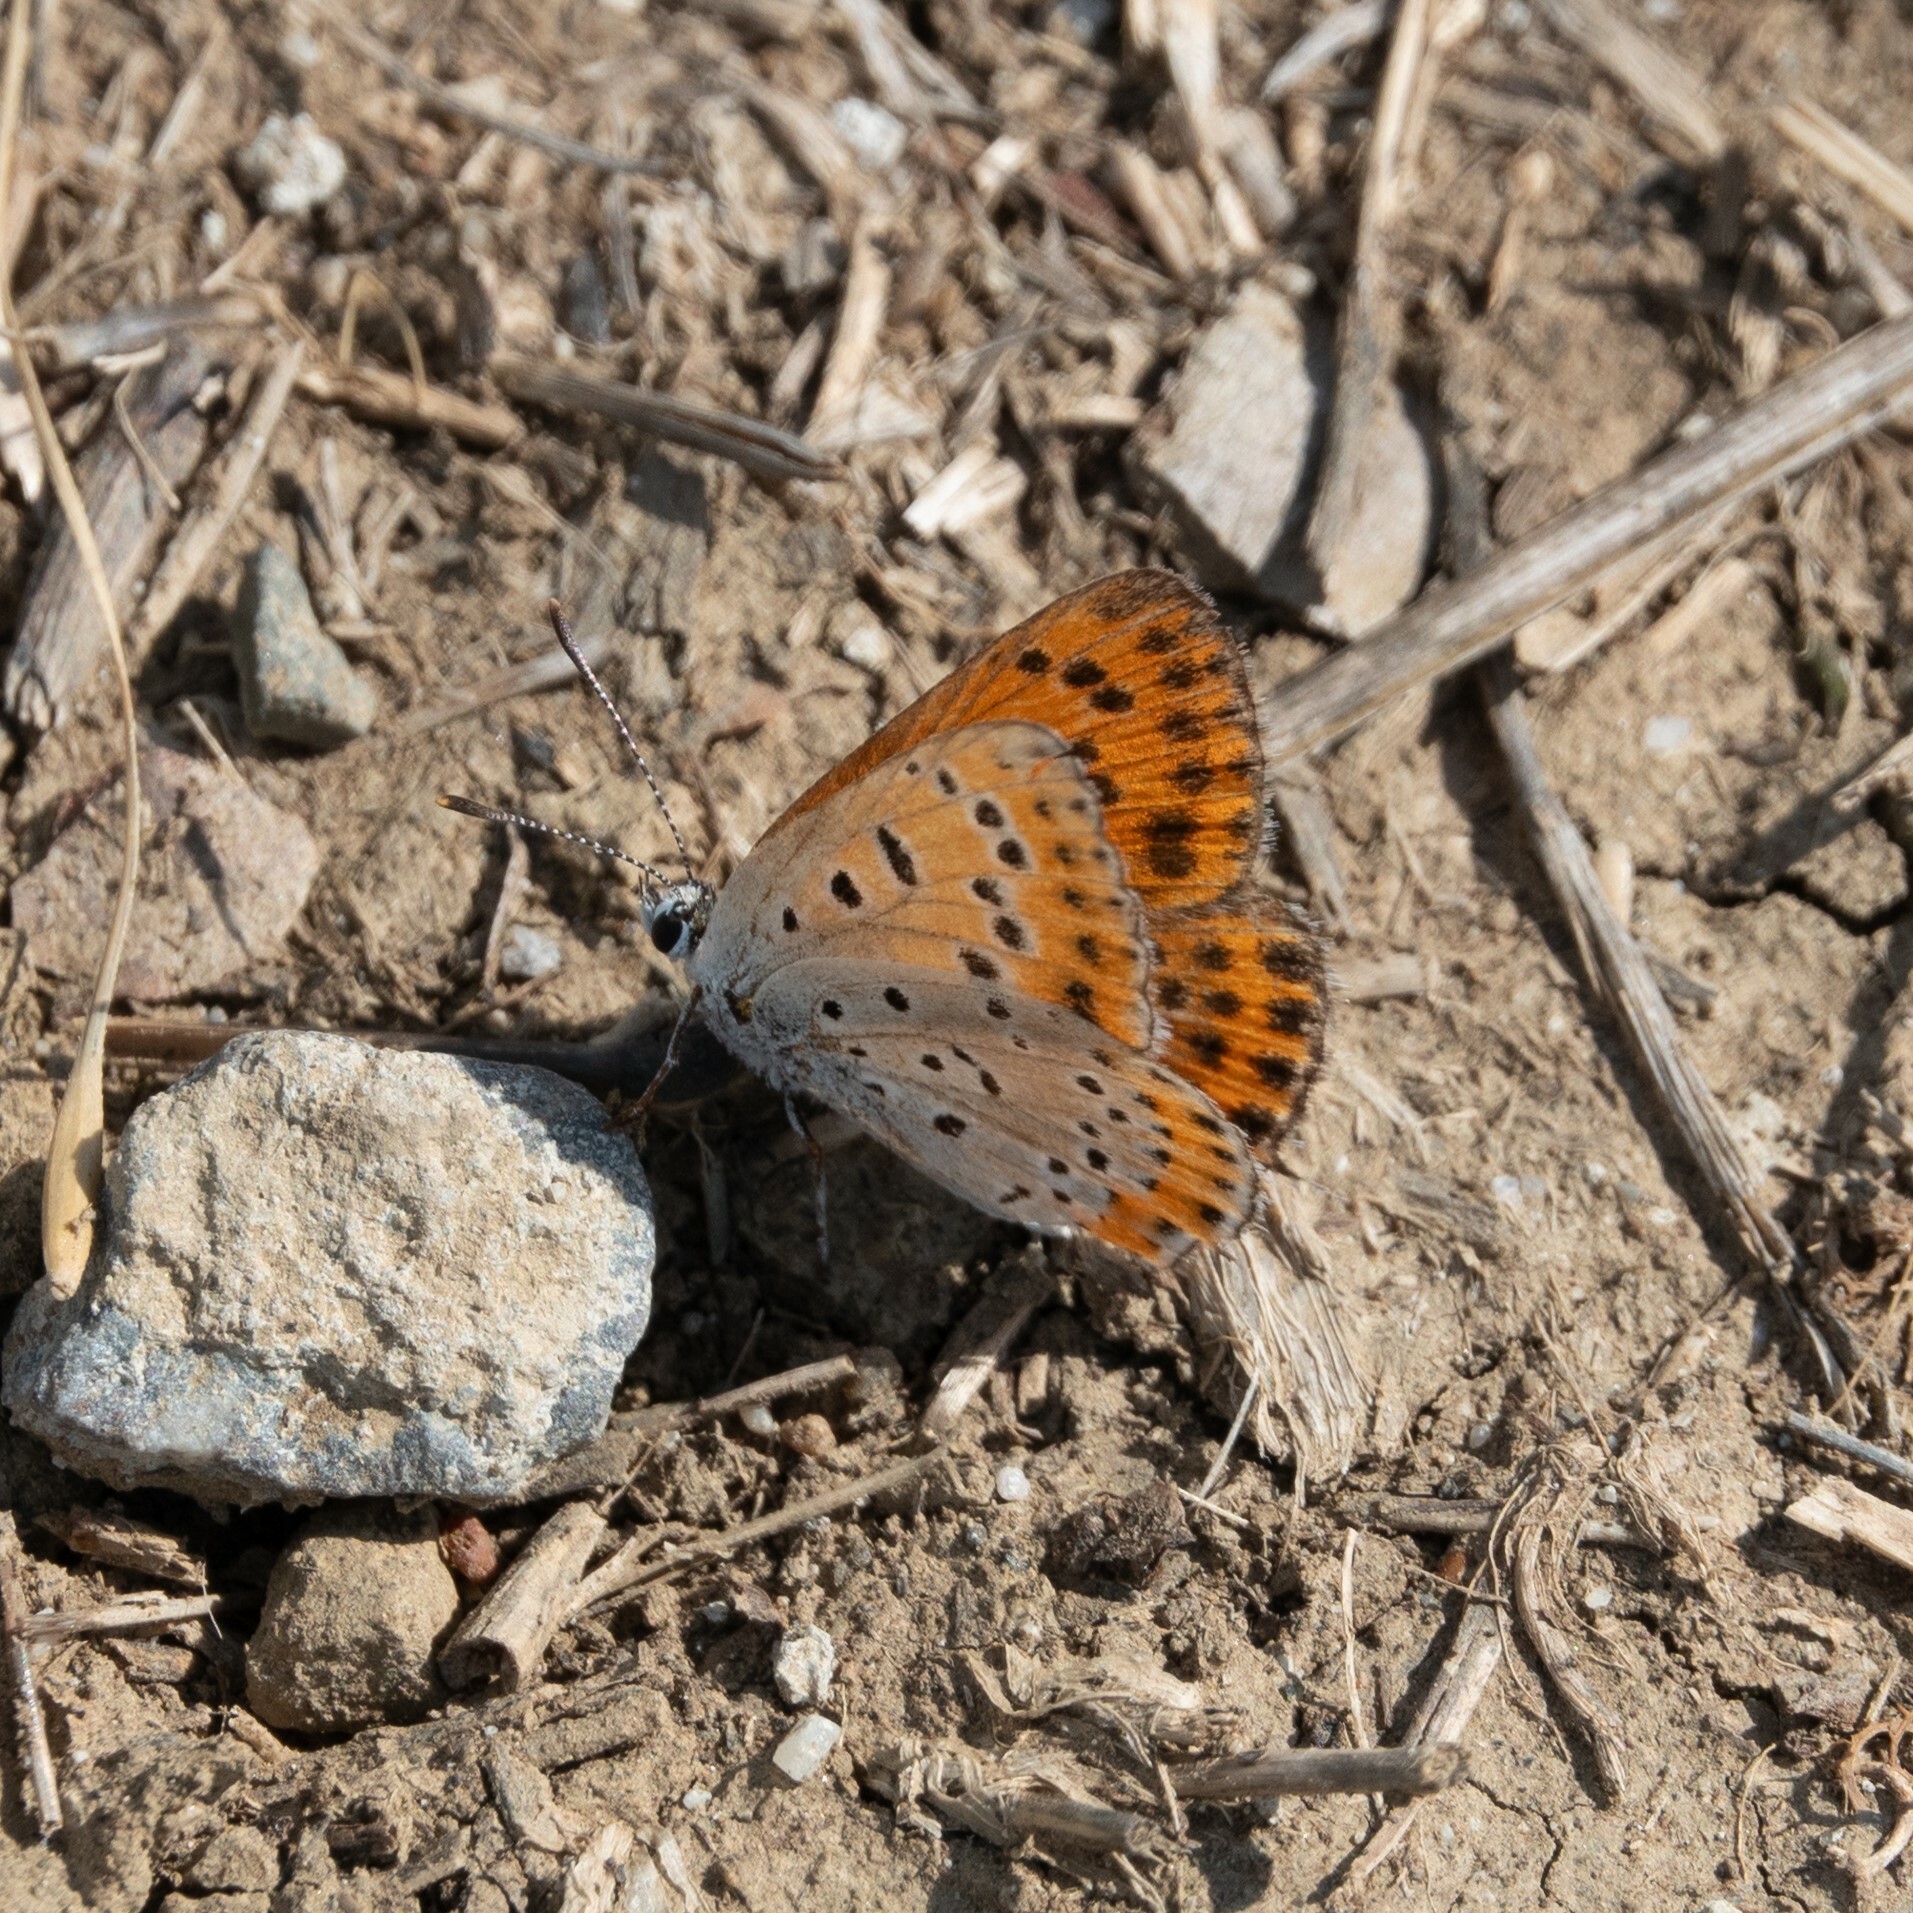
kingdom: Animalia
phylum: Arthropoda
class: Insecta
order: Lepidoptera
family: Lycaenidae
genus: Thersamonia
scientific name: Thersamonia thersamon
